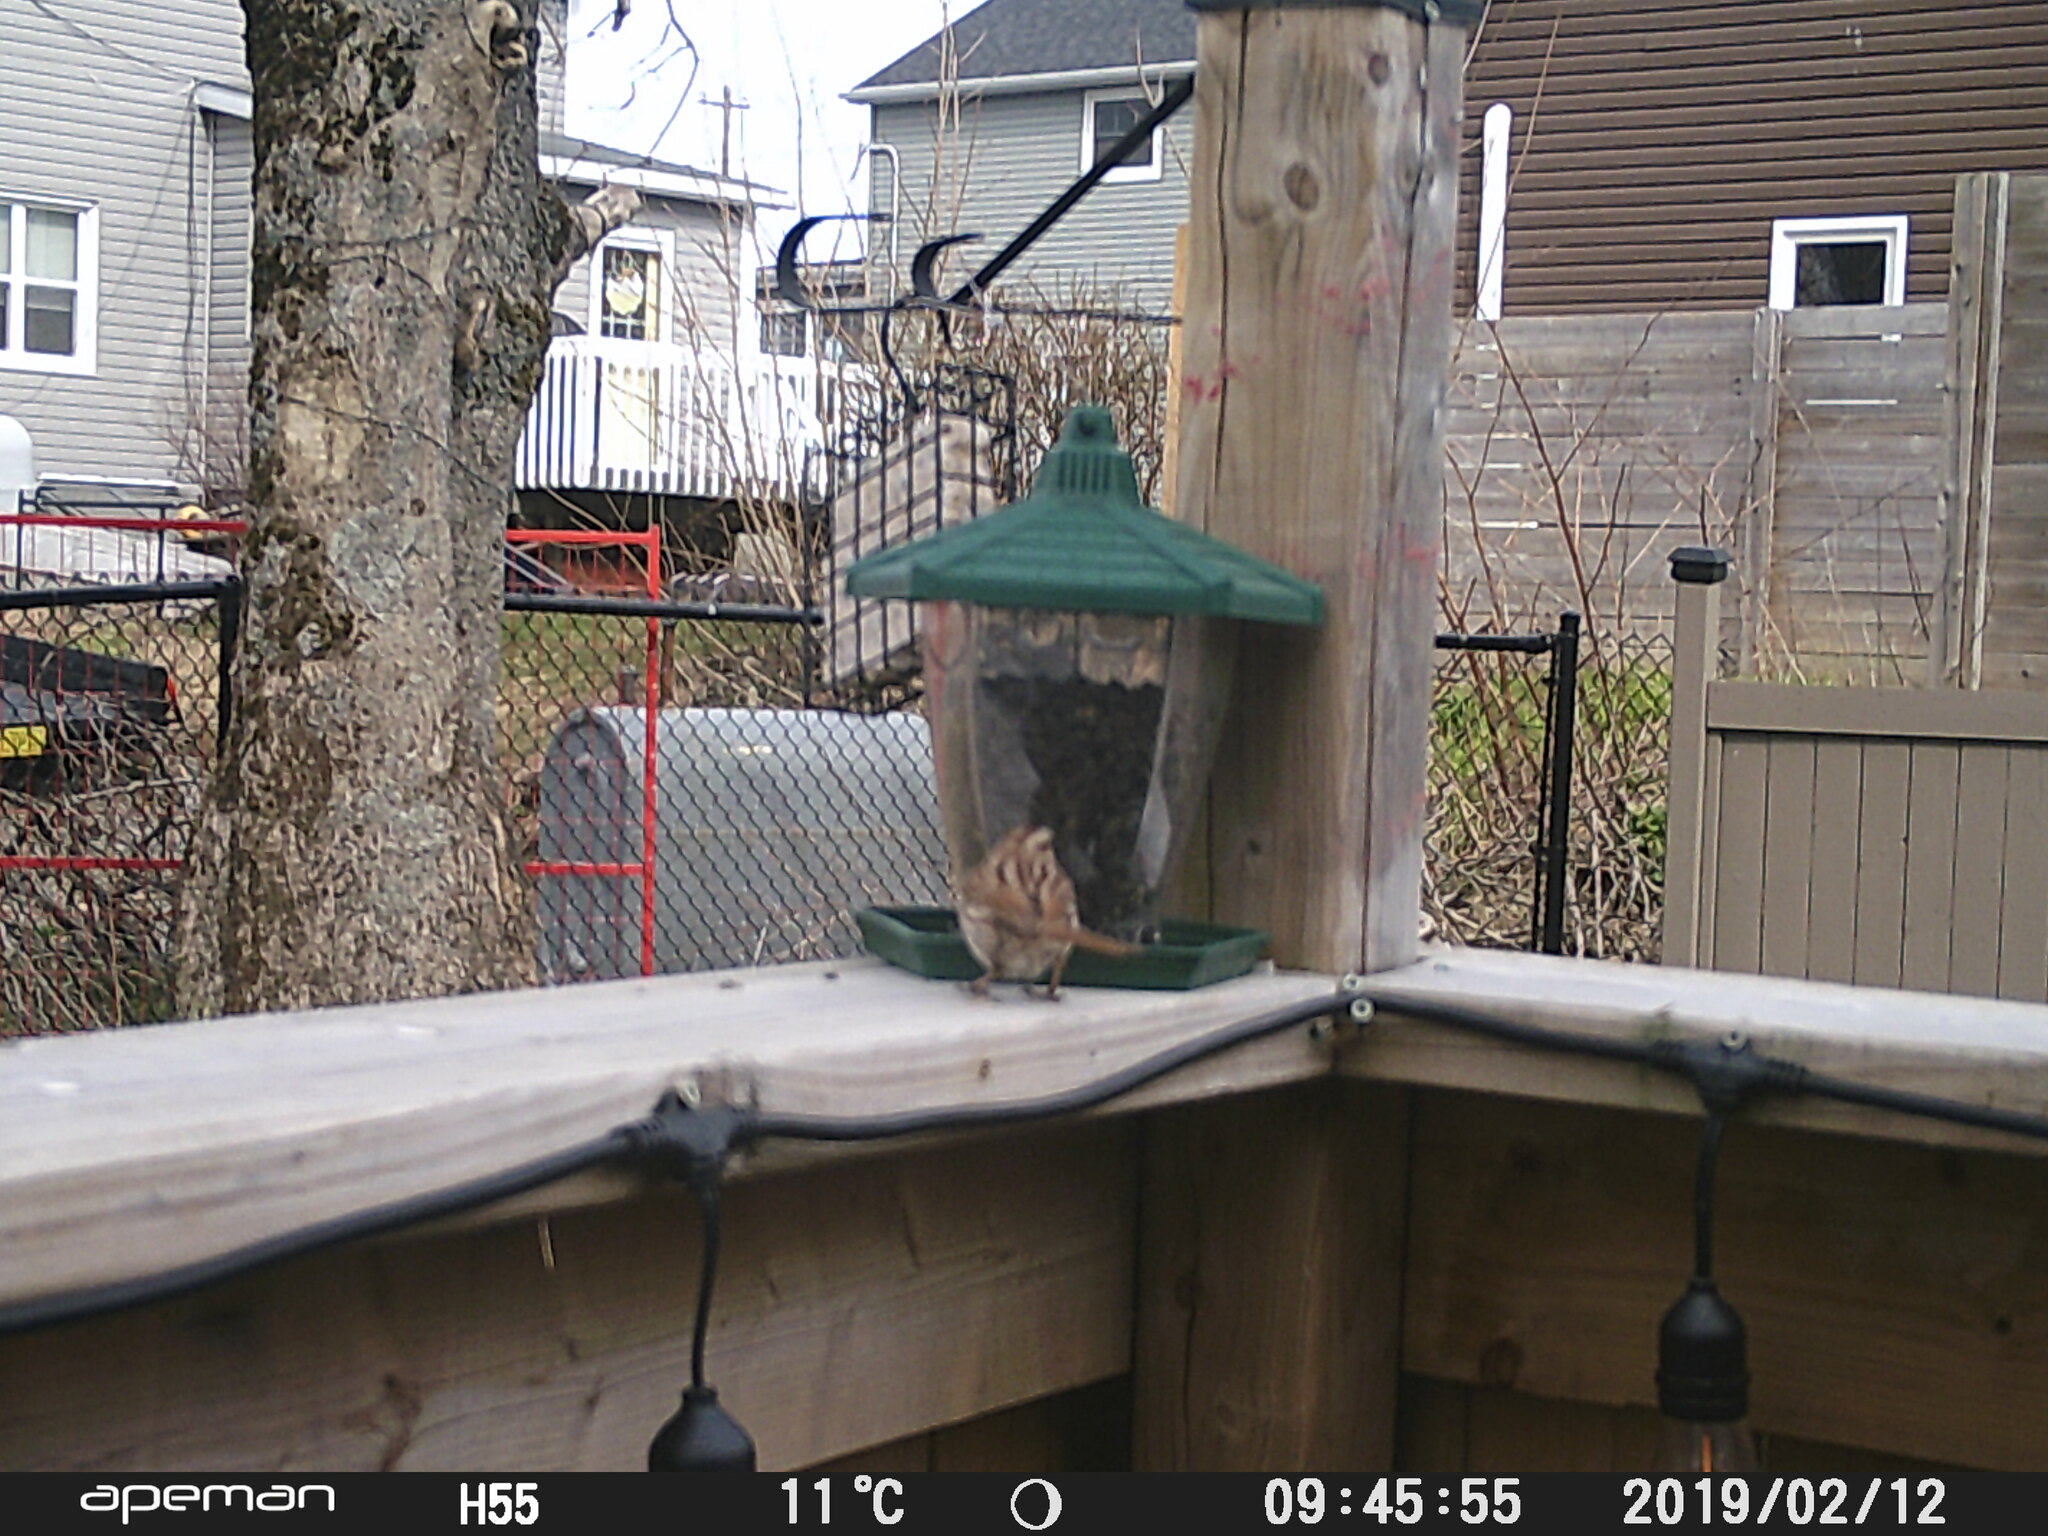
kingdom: Animalia
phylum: Chordata
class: Aves
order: Passeriformes
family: Passerellidae
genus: Melospiza
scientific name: Melospiza melodia
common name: Song sparrow
